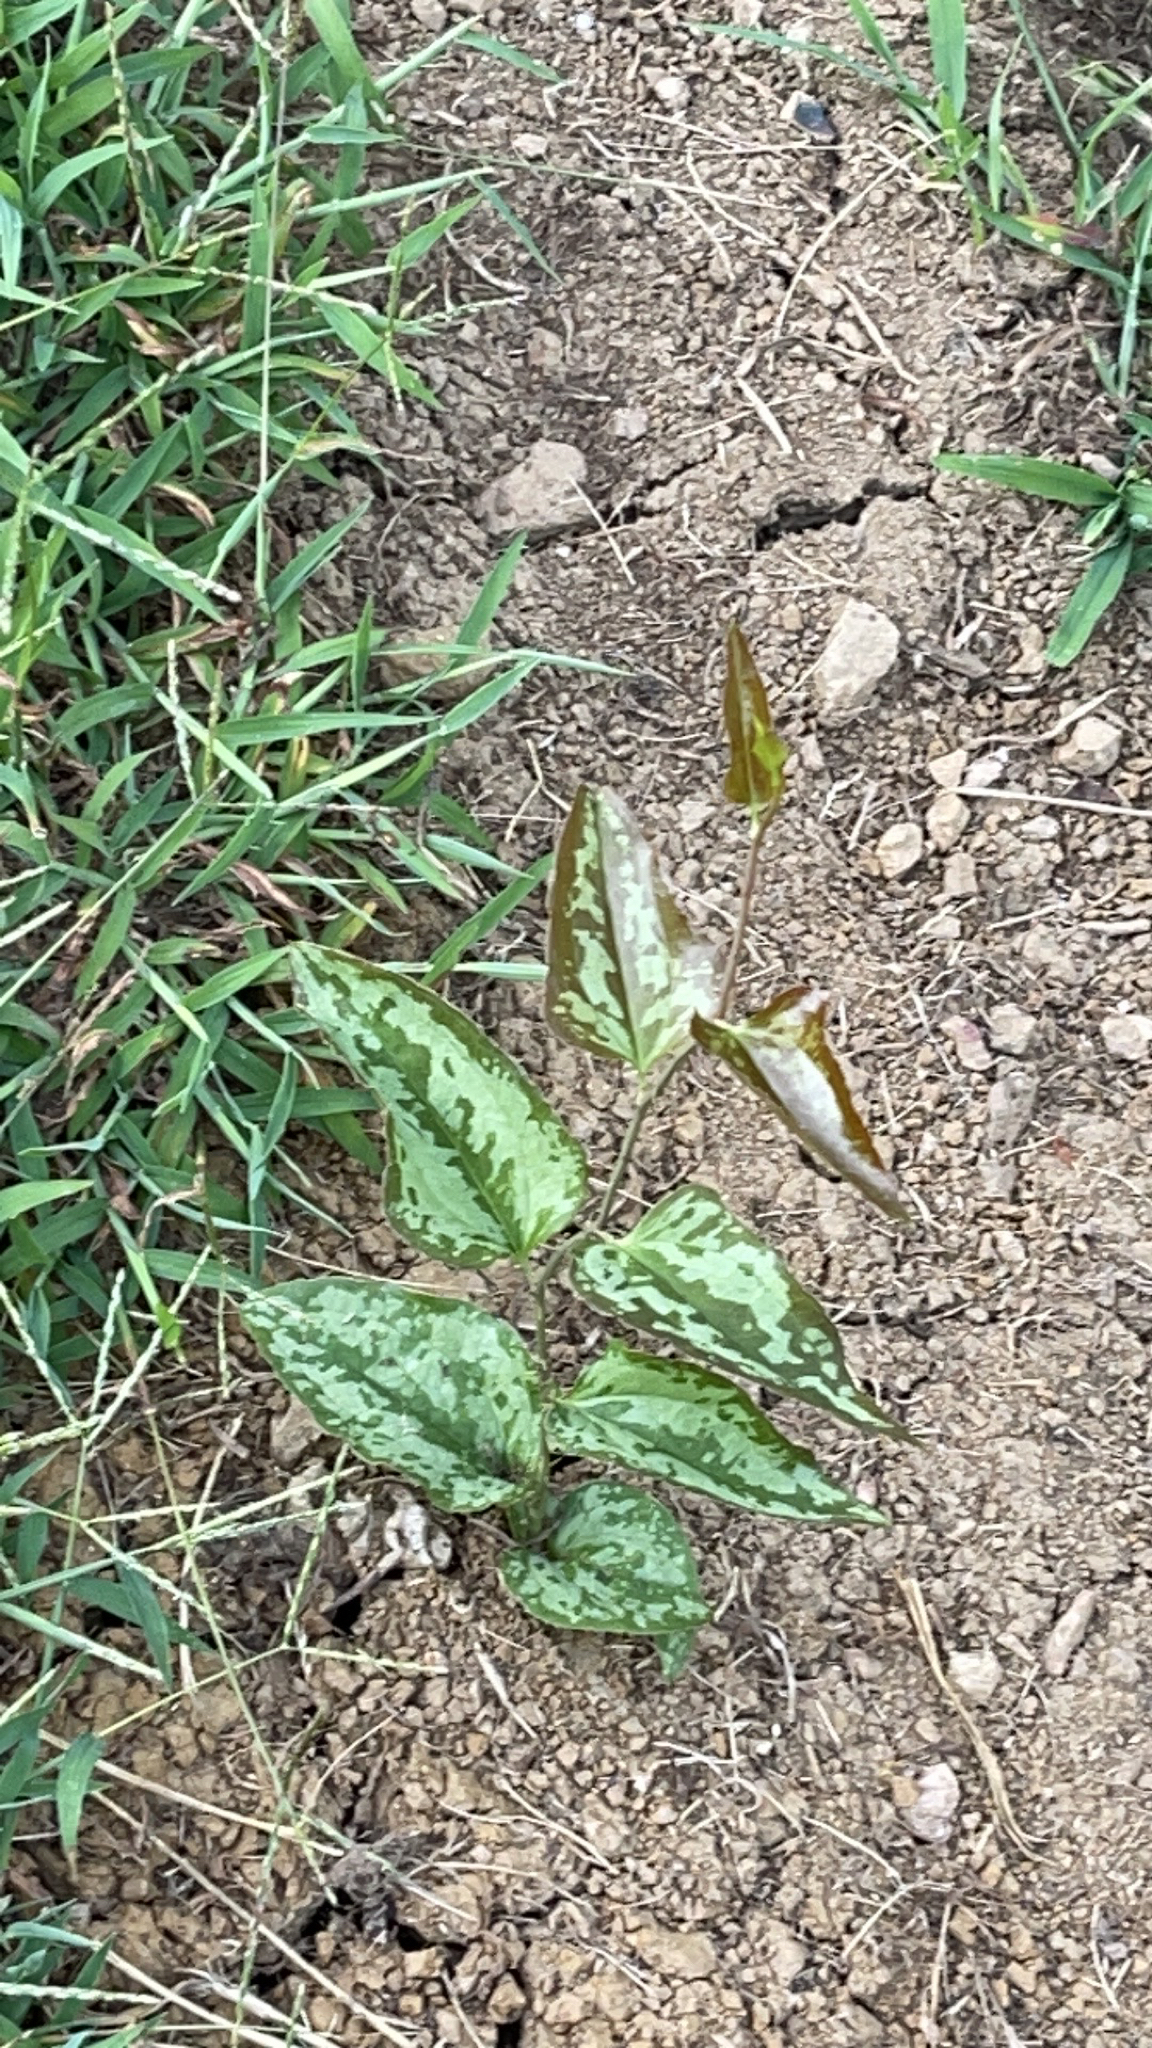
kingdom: Plantae
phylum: Tracheophyta
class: Liliopsida
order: Liliales
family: Smilacaceae
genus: Smilax
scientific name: Smilax bona-nox
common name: Catbrier
